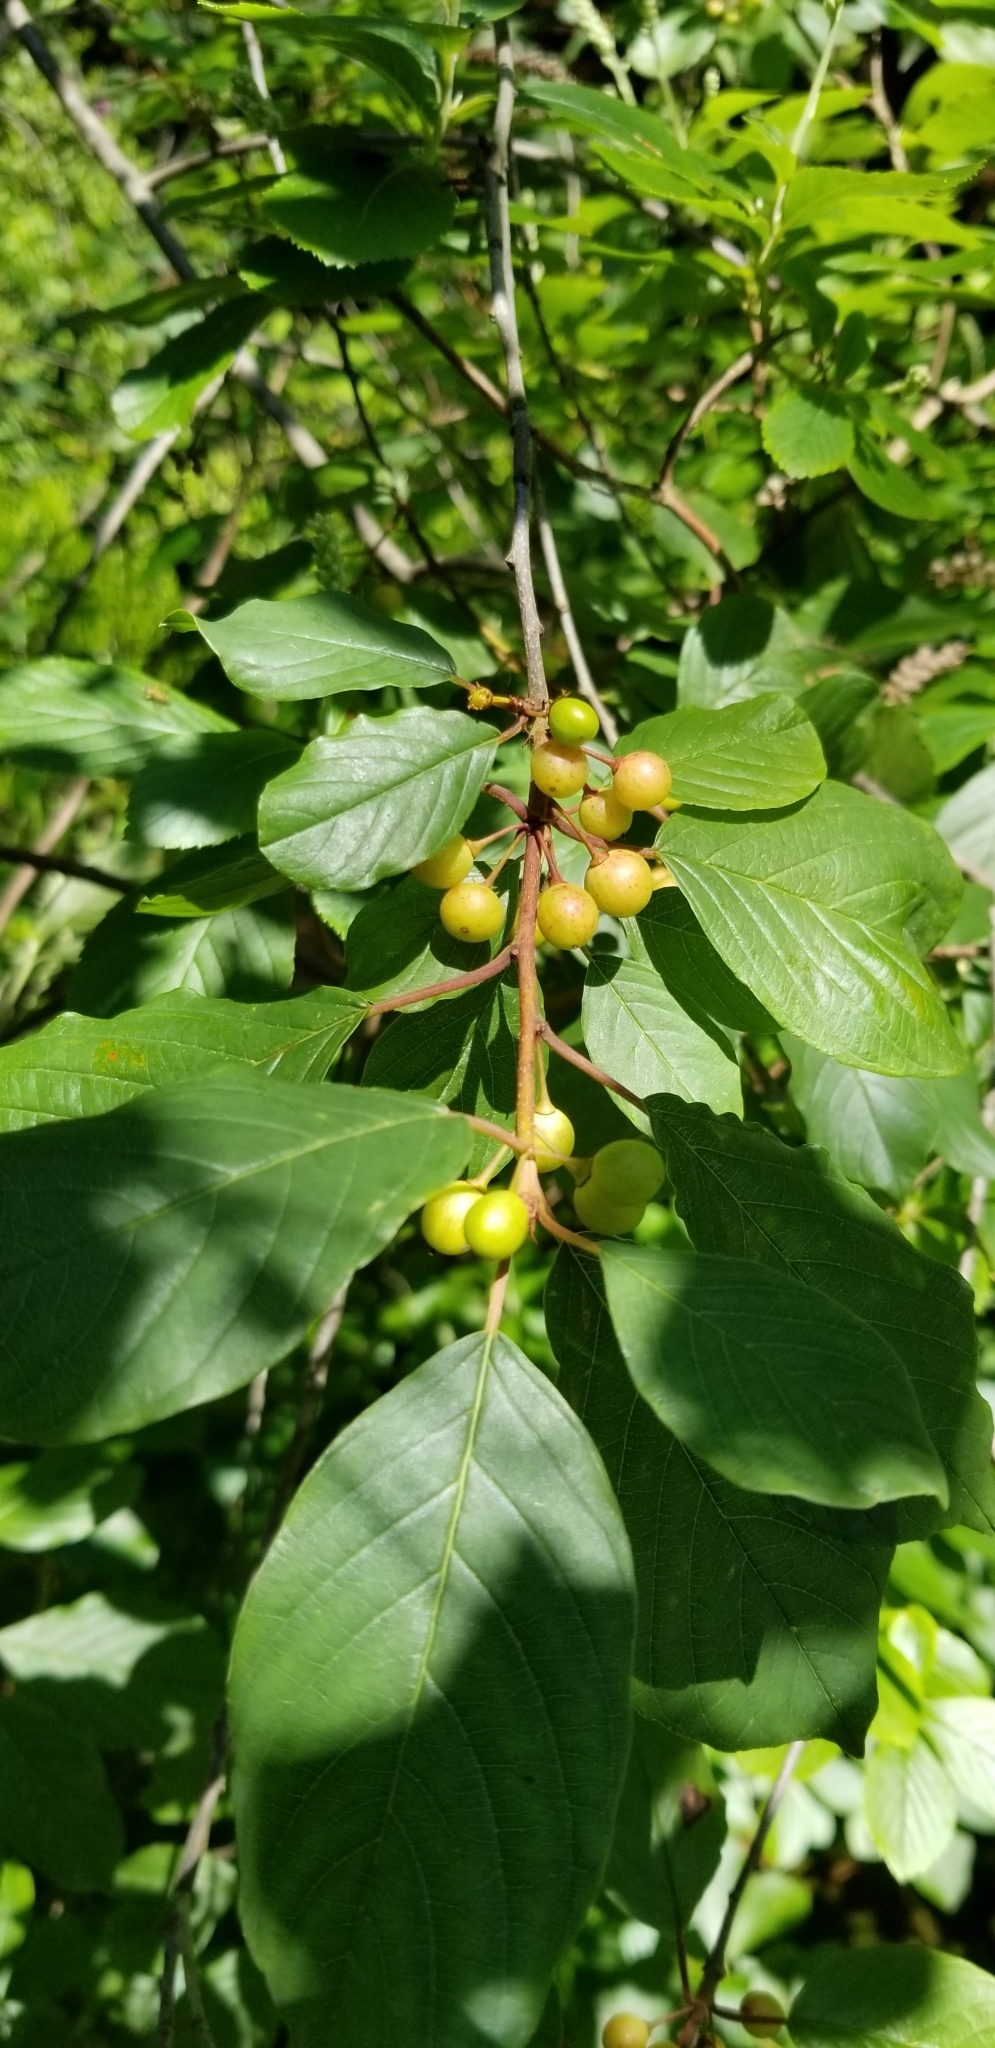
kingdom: Plantae
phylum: Tracheophyta
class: Magnoliopsida
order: Rosales
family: Rhamnaceae
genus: Frangula
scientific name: Frangula alnus
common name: Alder buckthorn
